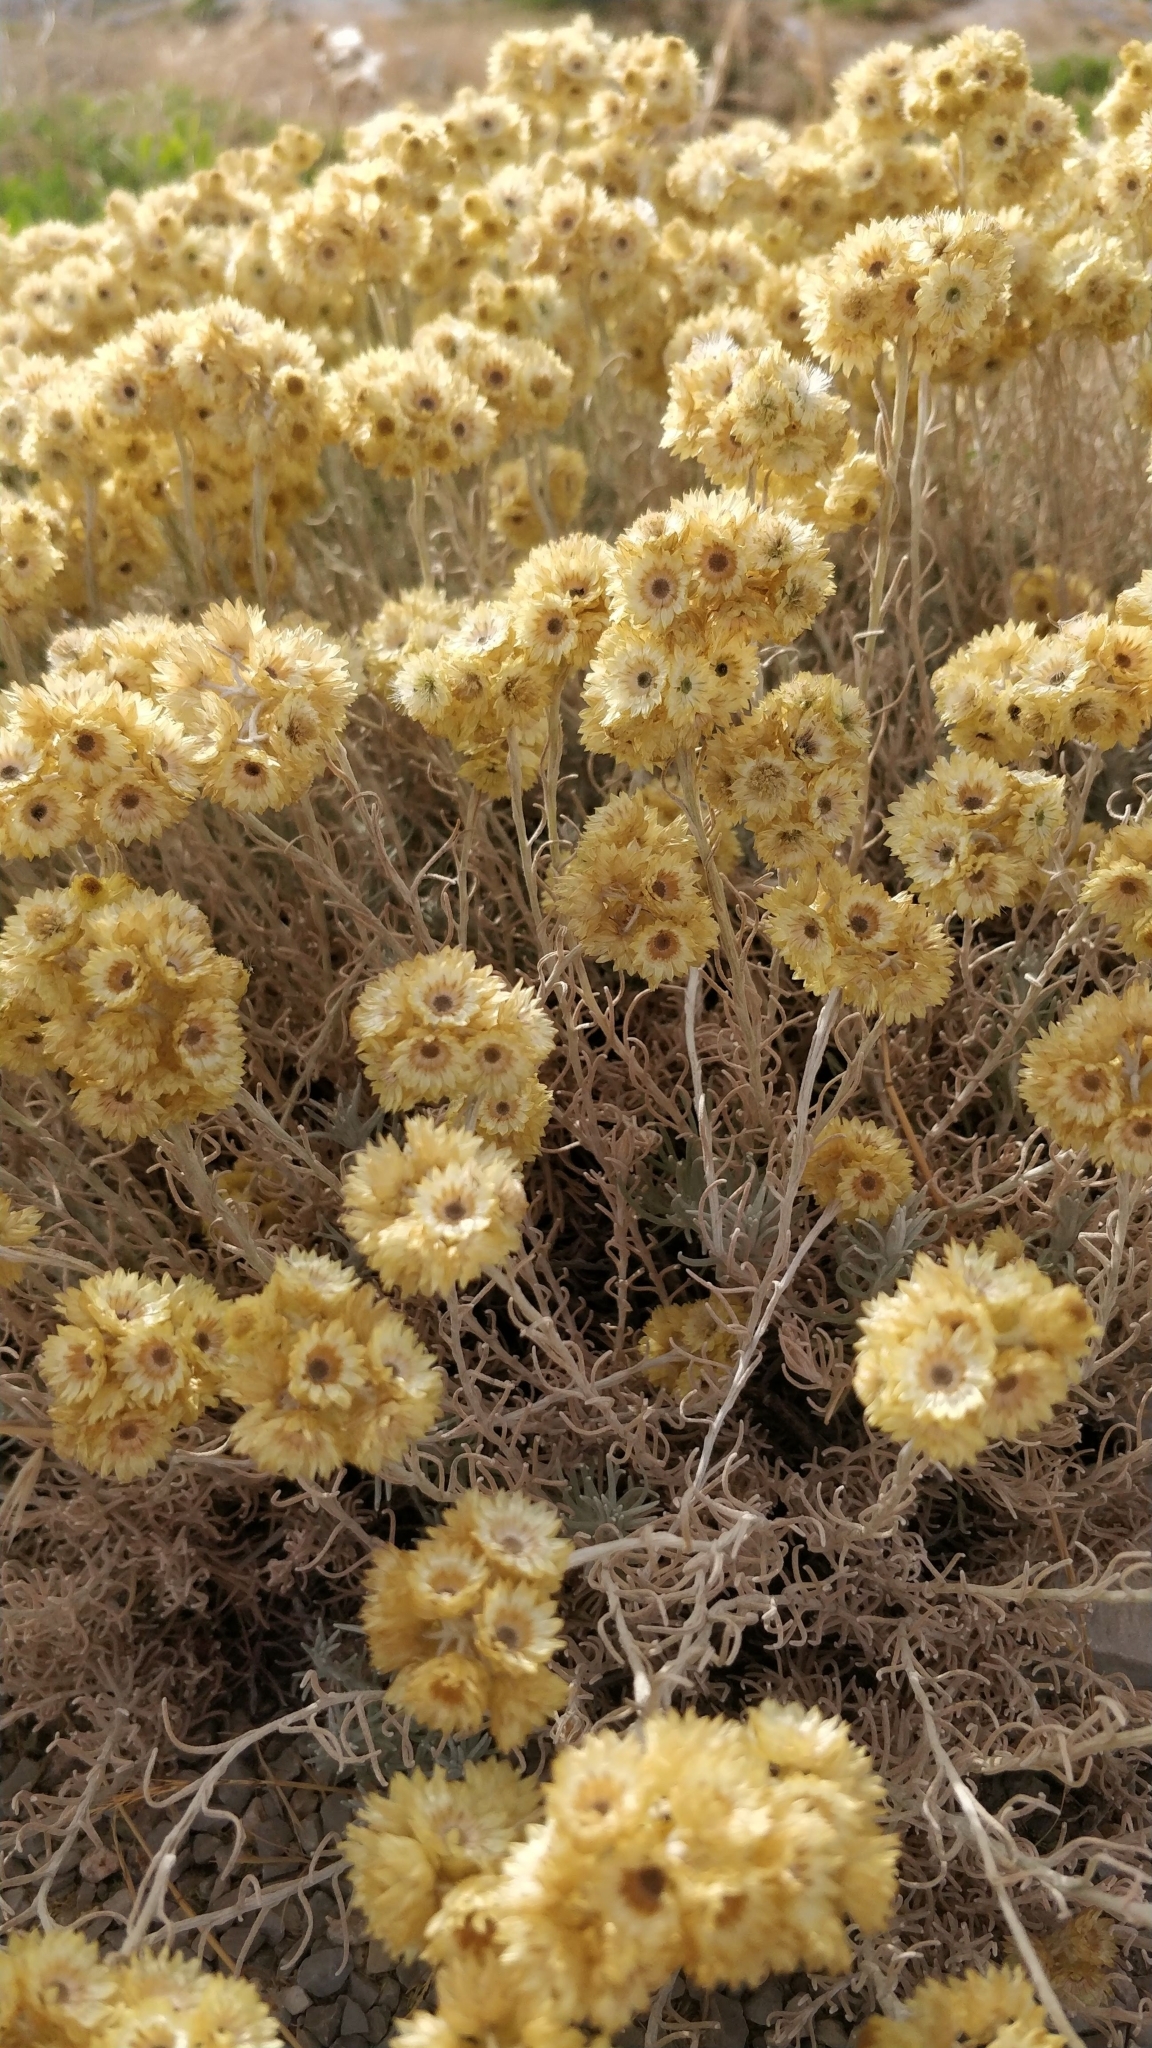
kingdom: Plantae
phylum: Tracheophyta
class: Magnoliopsida
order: Asterales
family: Asteraceae
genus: Helichrysum
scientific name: Helichrysum stoechas
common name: Goldilocks
